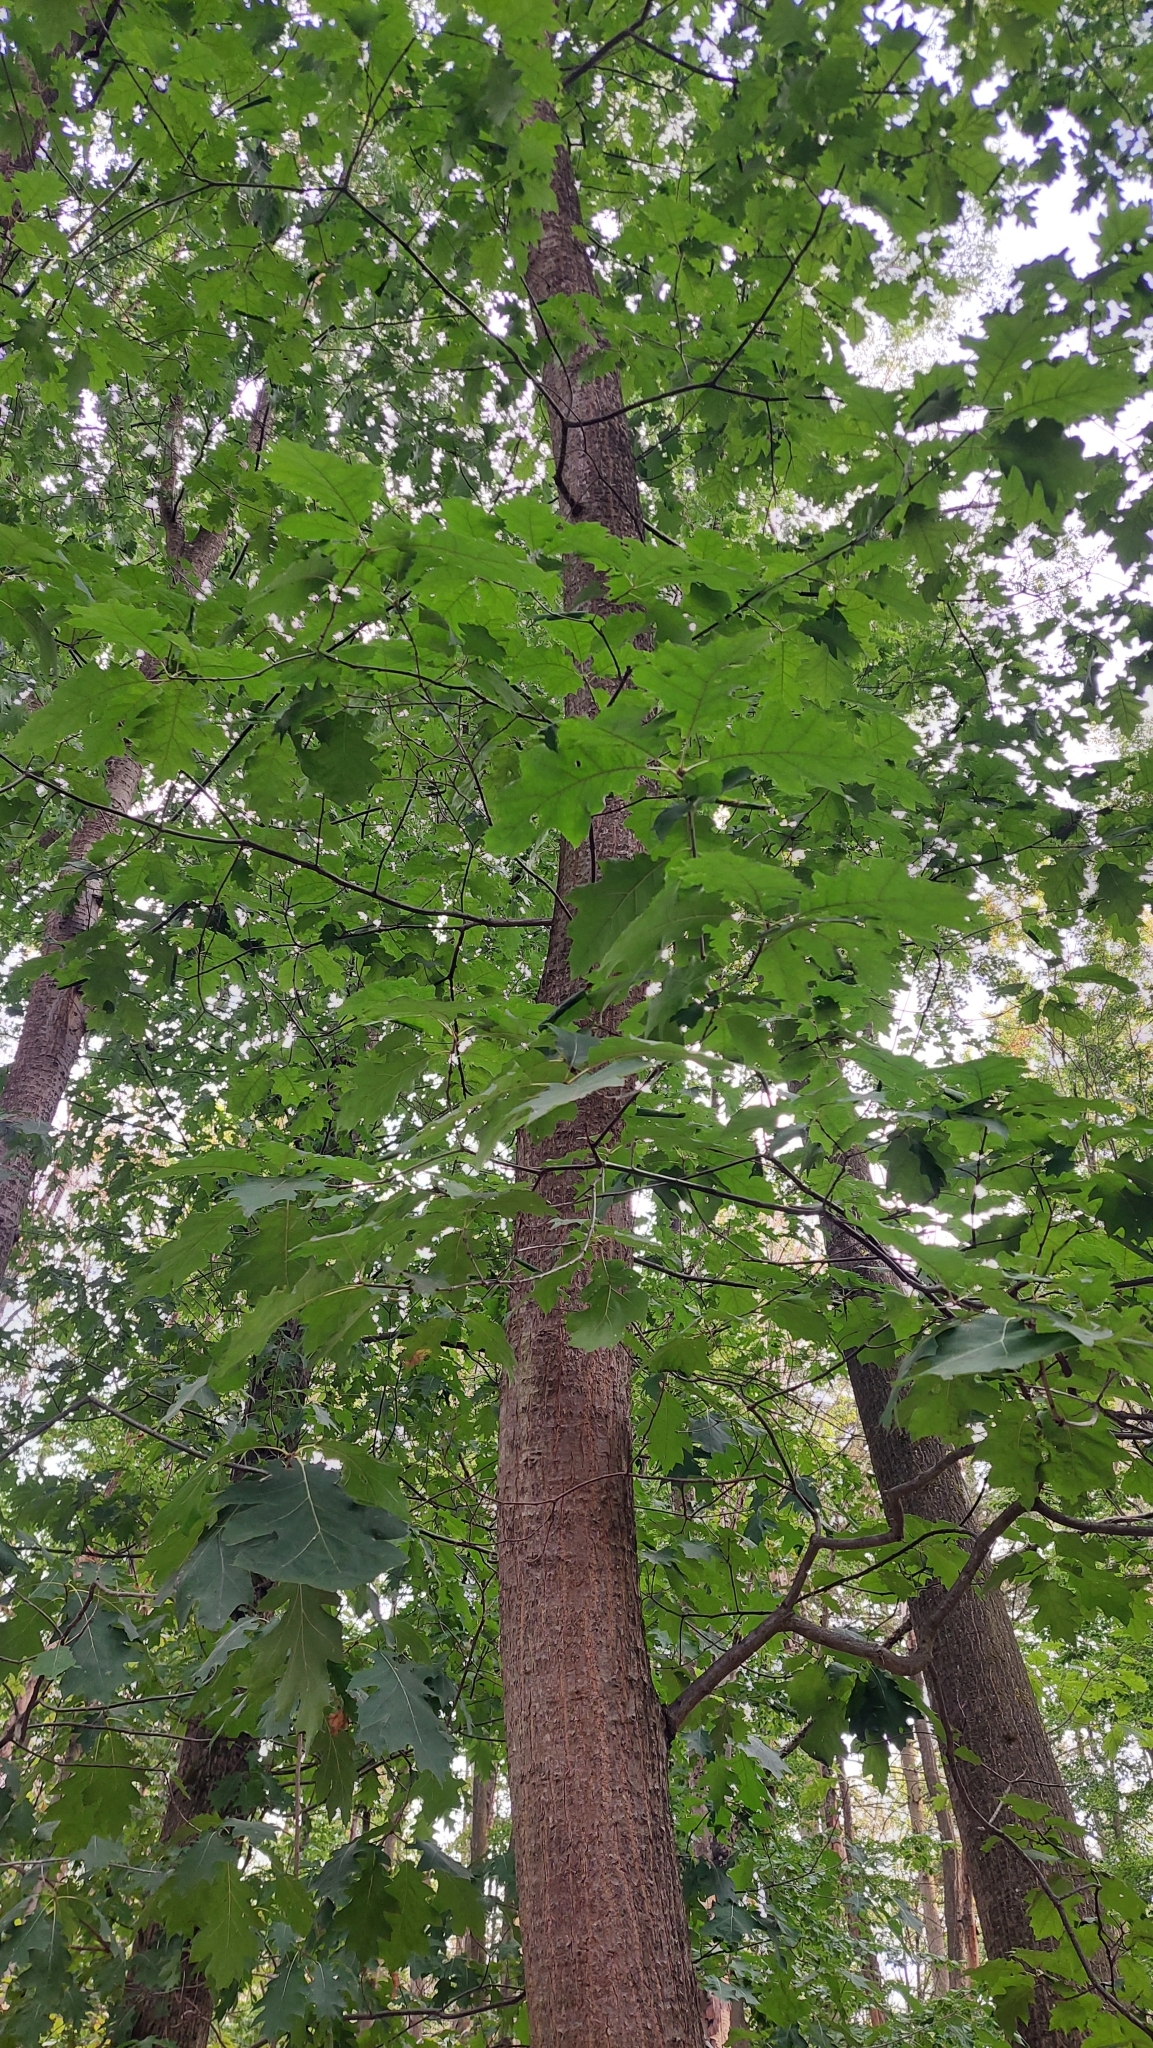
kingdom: Plantae
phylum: Tracheophyta
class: Magnoliopsida
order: Fagales
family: Fagaceae
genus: Quercus
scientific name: Quercus rubra
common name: Red oak
